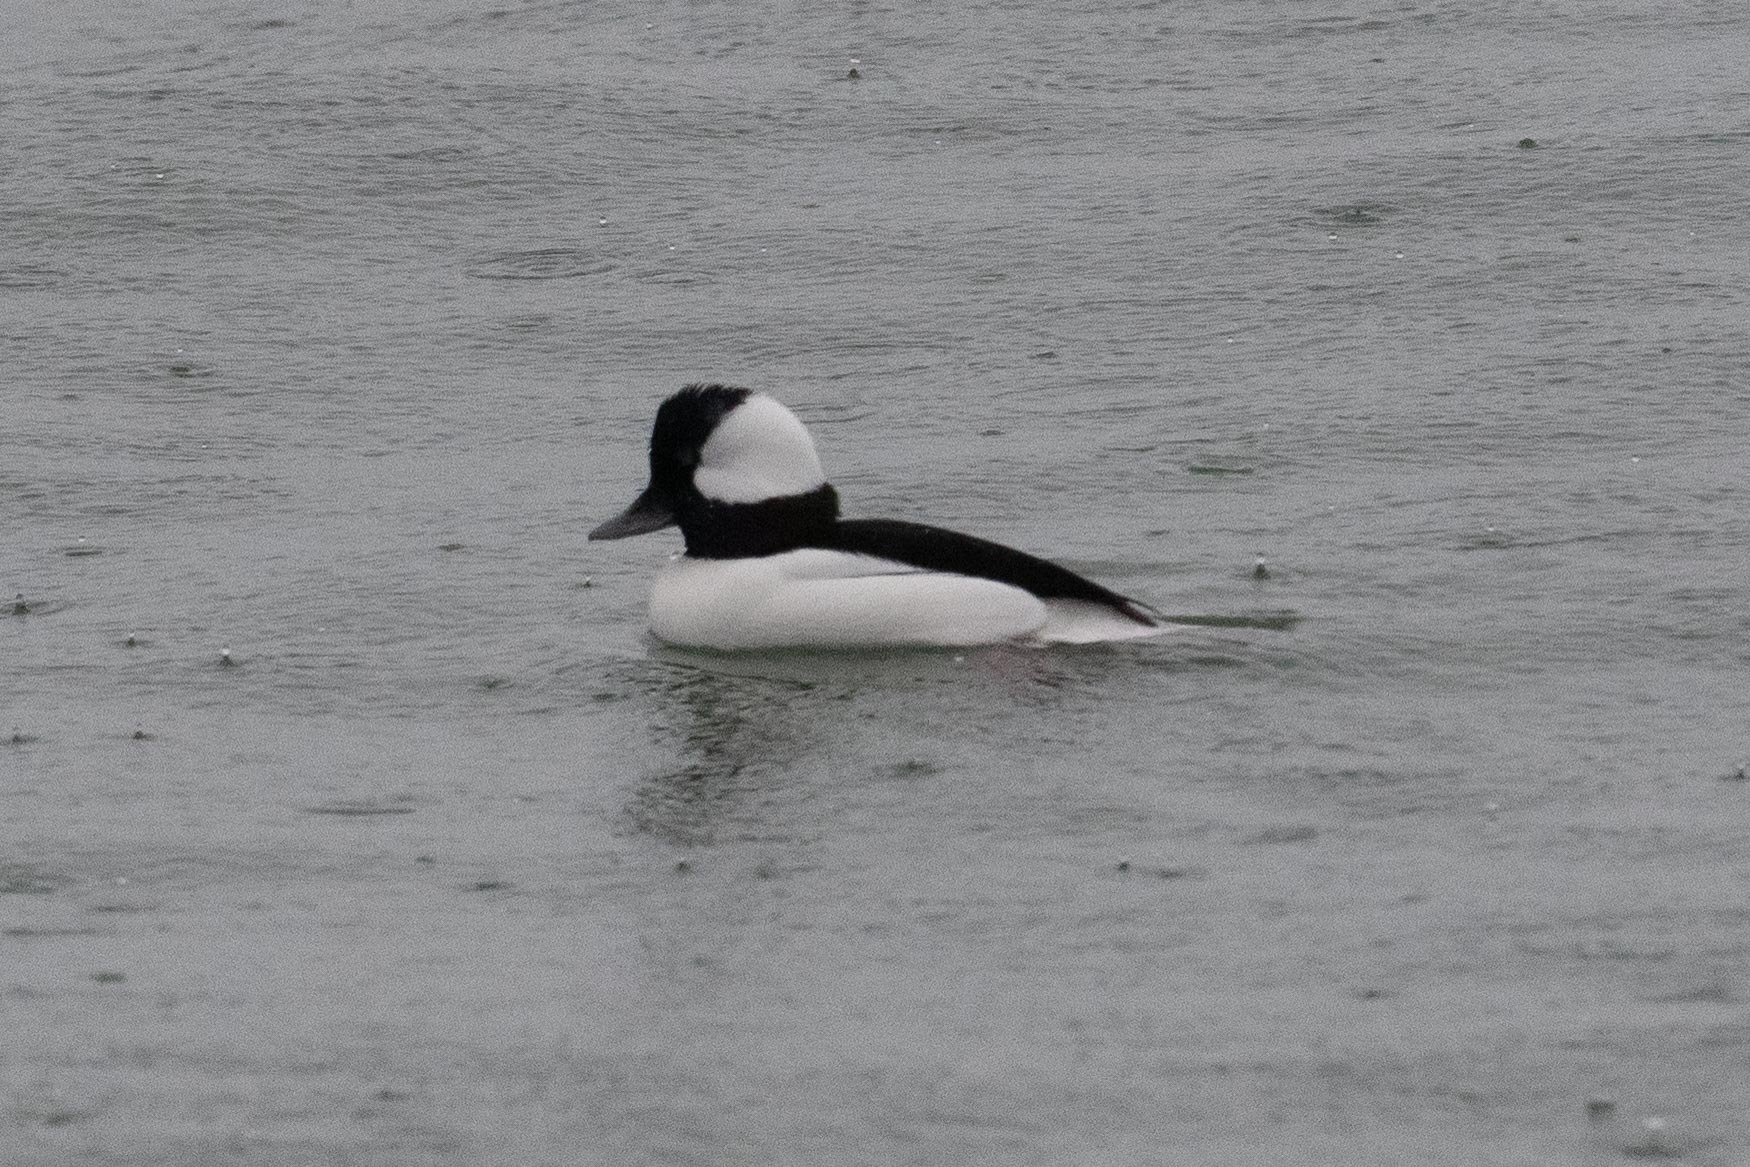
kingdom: Animalia
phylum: Chordata
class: Aves
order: Anseriformes
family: Anatidae
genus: Bucephala
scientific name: Bucephala albeola
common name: Bufflehead
